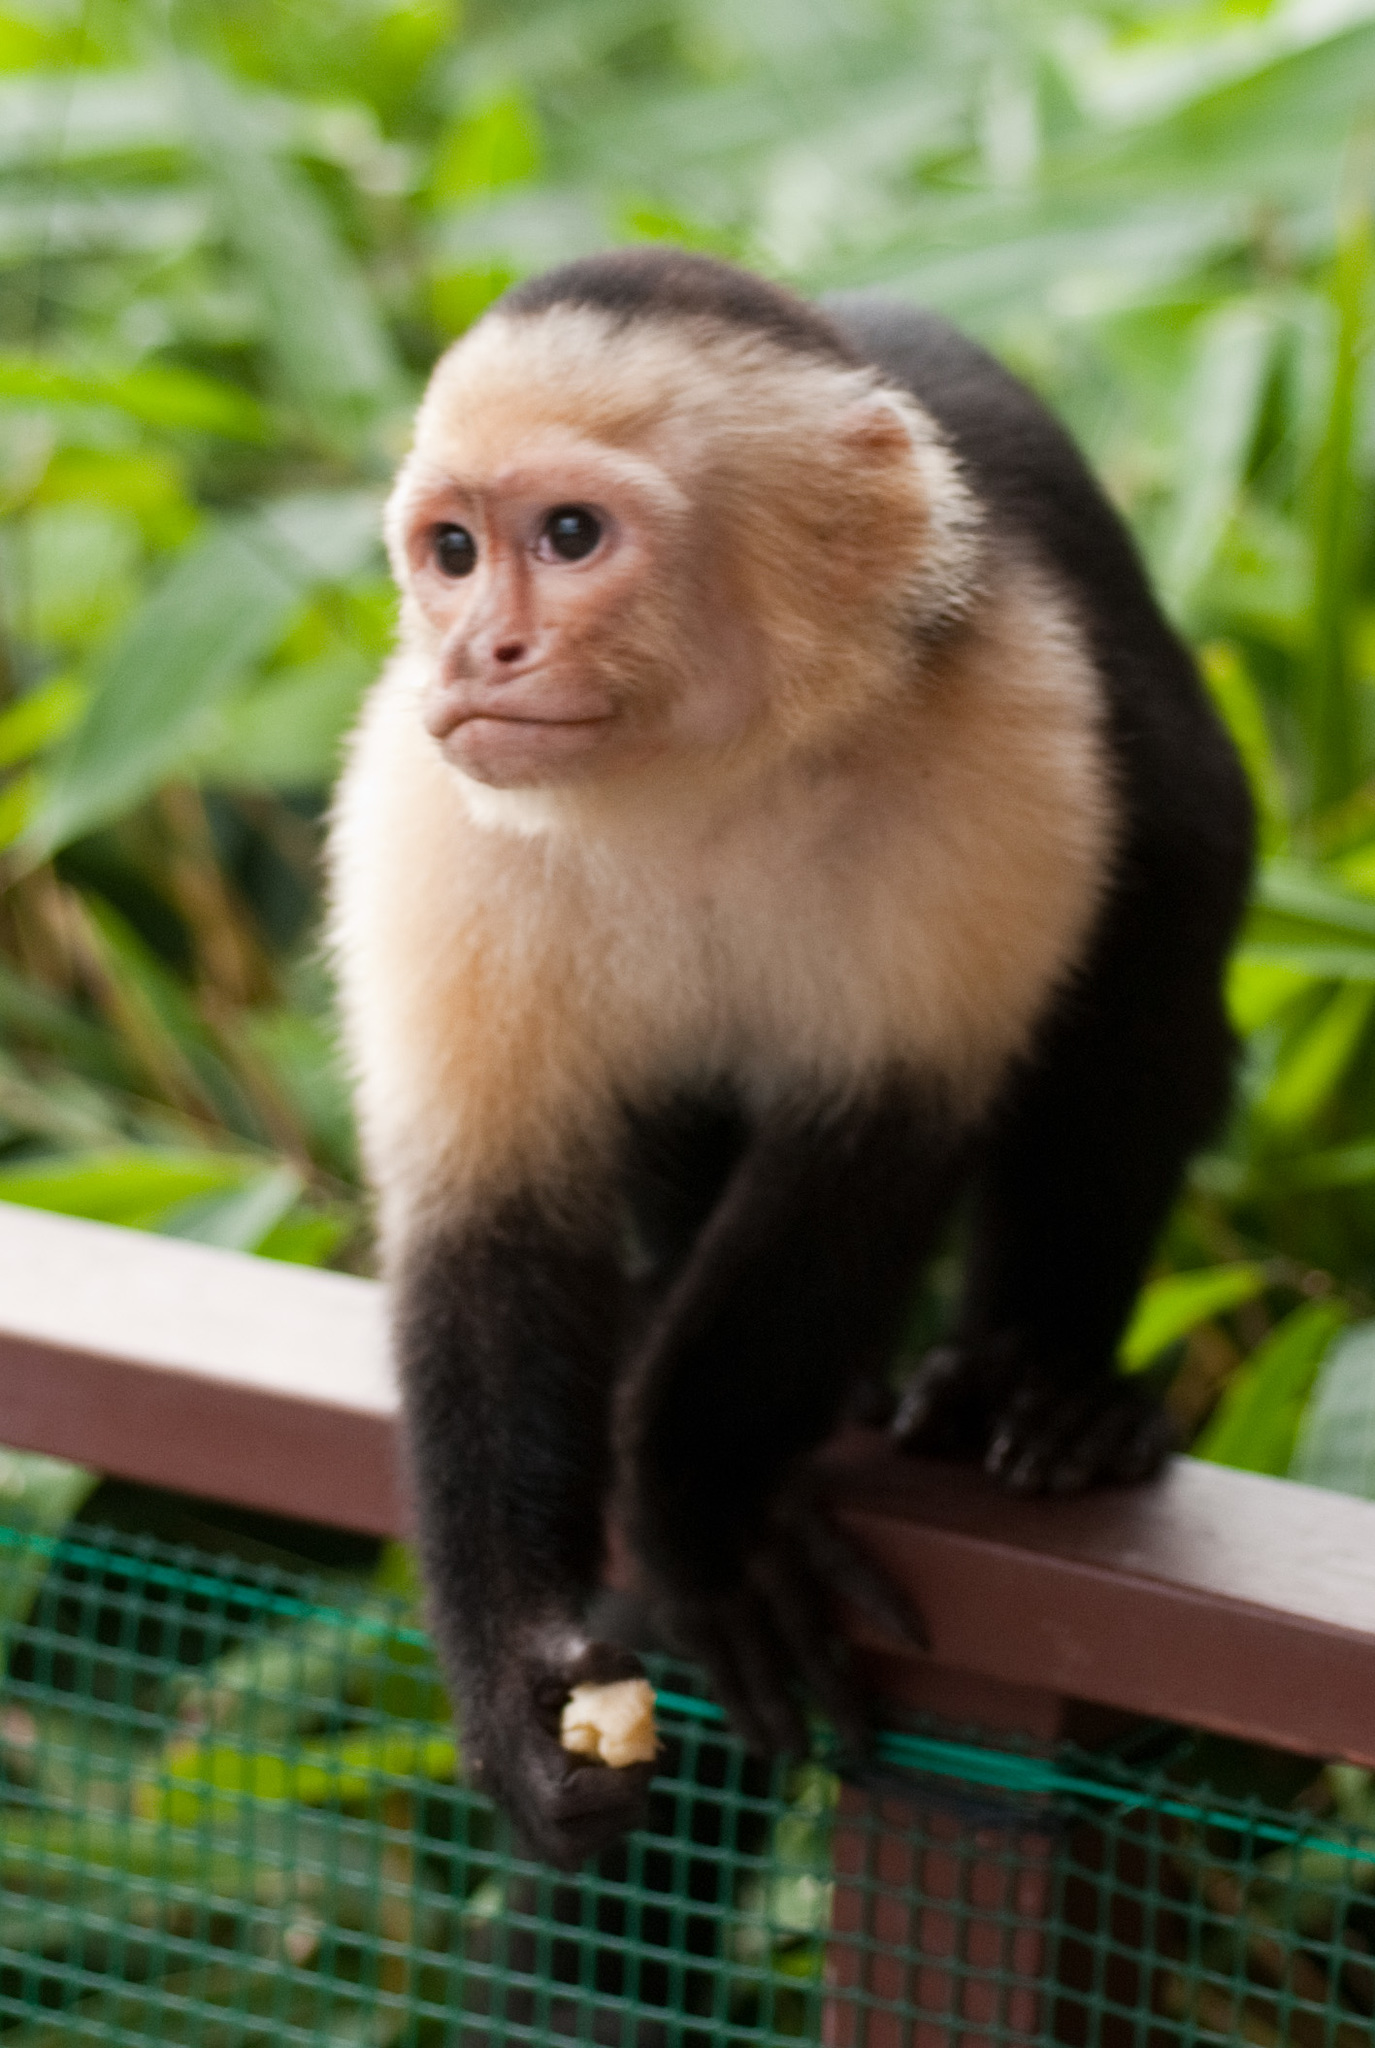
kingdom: Animalia
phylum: Chordata
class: Mammalia
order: Primates
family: Cebidae
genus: Cebus
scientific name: Cebus imitator
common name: Panamanian white-faced capuchin
